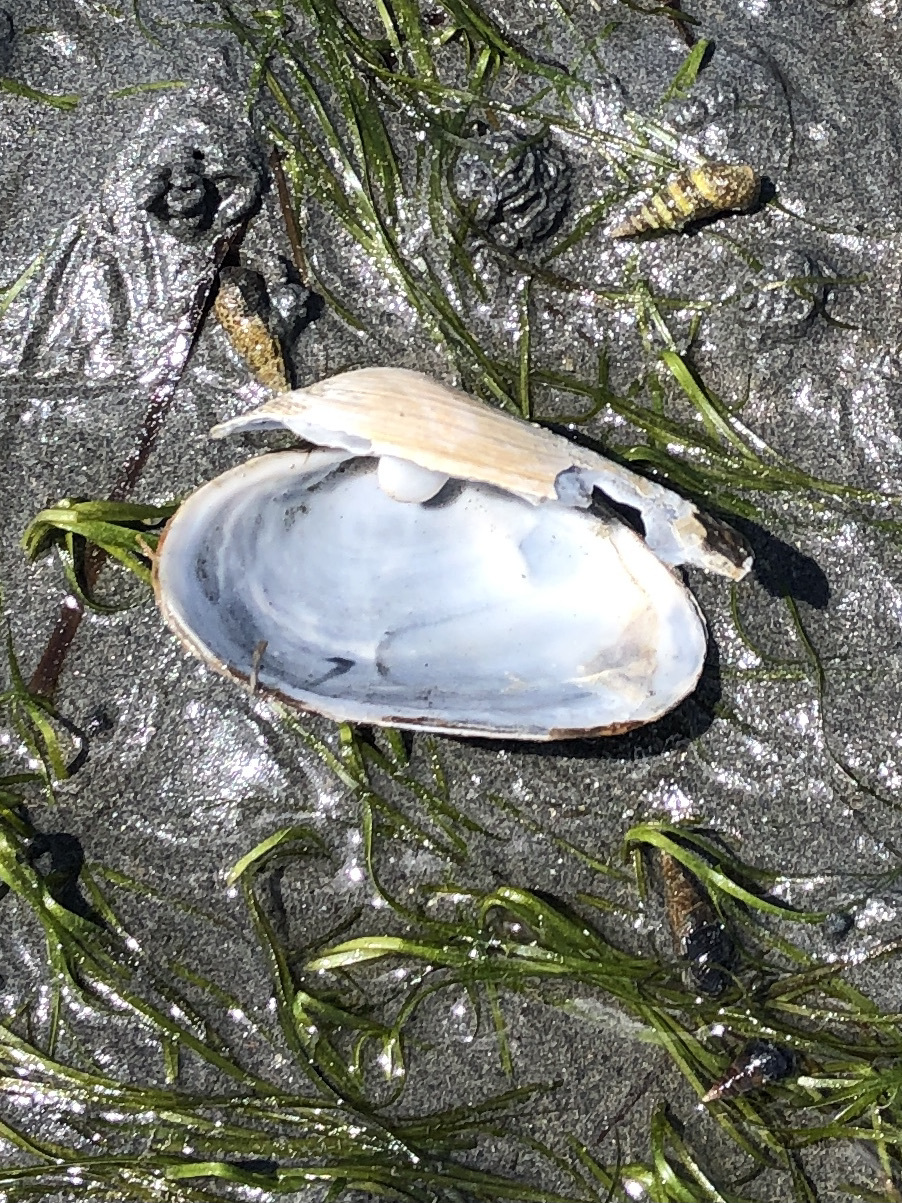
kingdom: Animalia
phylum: Mollusca
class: Bivalvia
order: Myida
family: Myidae
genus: Mya
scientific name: Mya arenaria
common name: Soft-shelled clam
